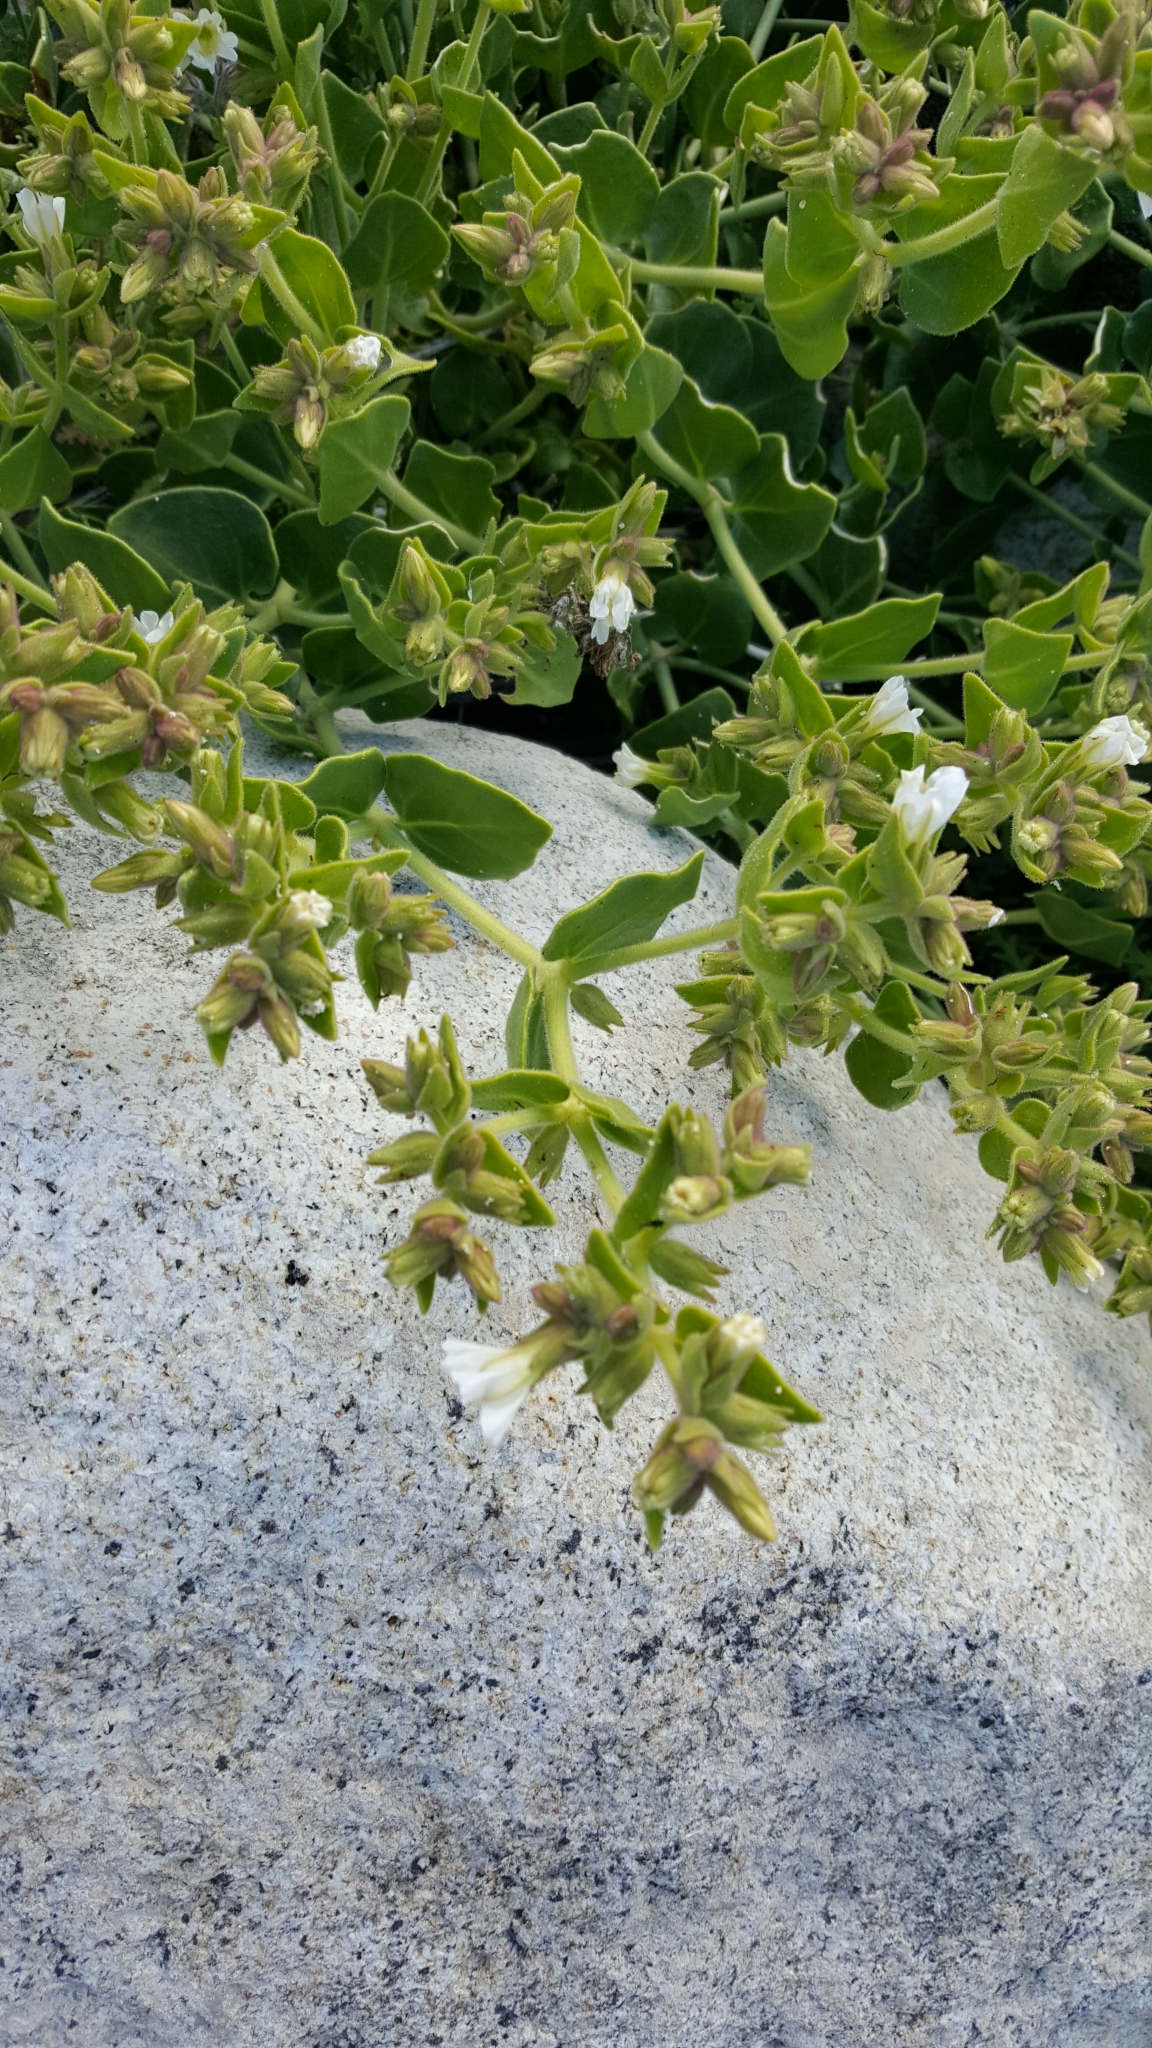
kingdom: Plantae
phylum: Tracheophyta
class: Magnoliopsida
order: Caryophyllales
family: Nyctaginaceae
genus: Mirabilis
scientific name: Mirabilis tenuiloba
